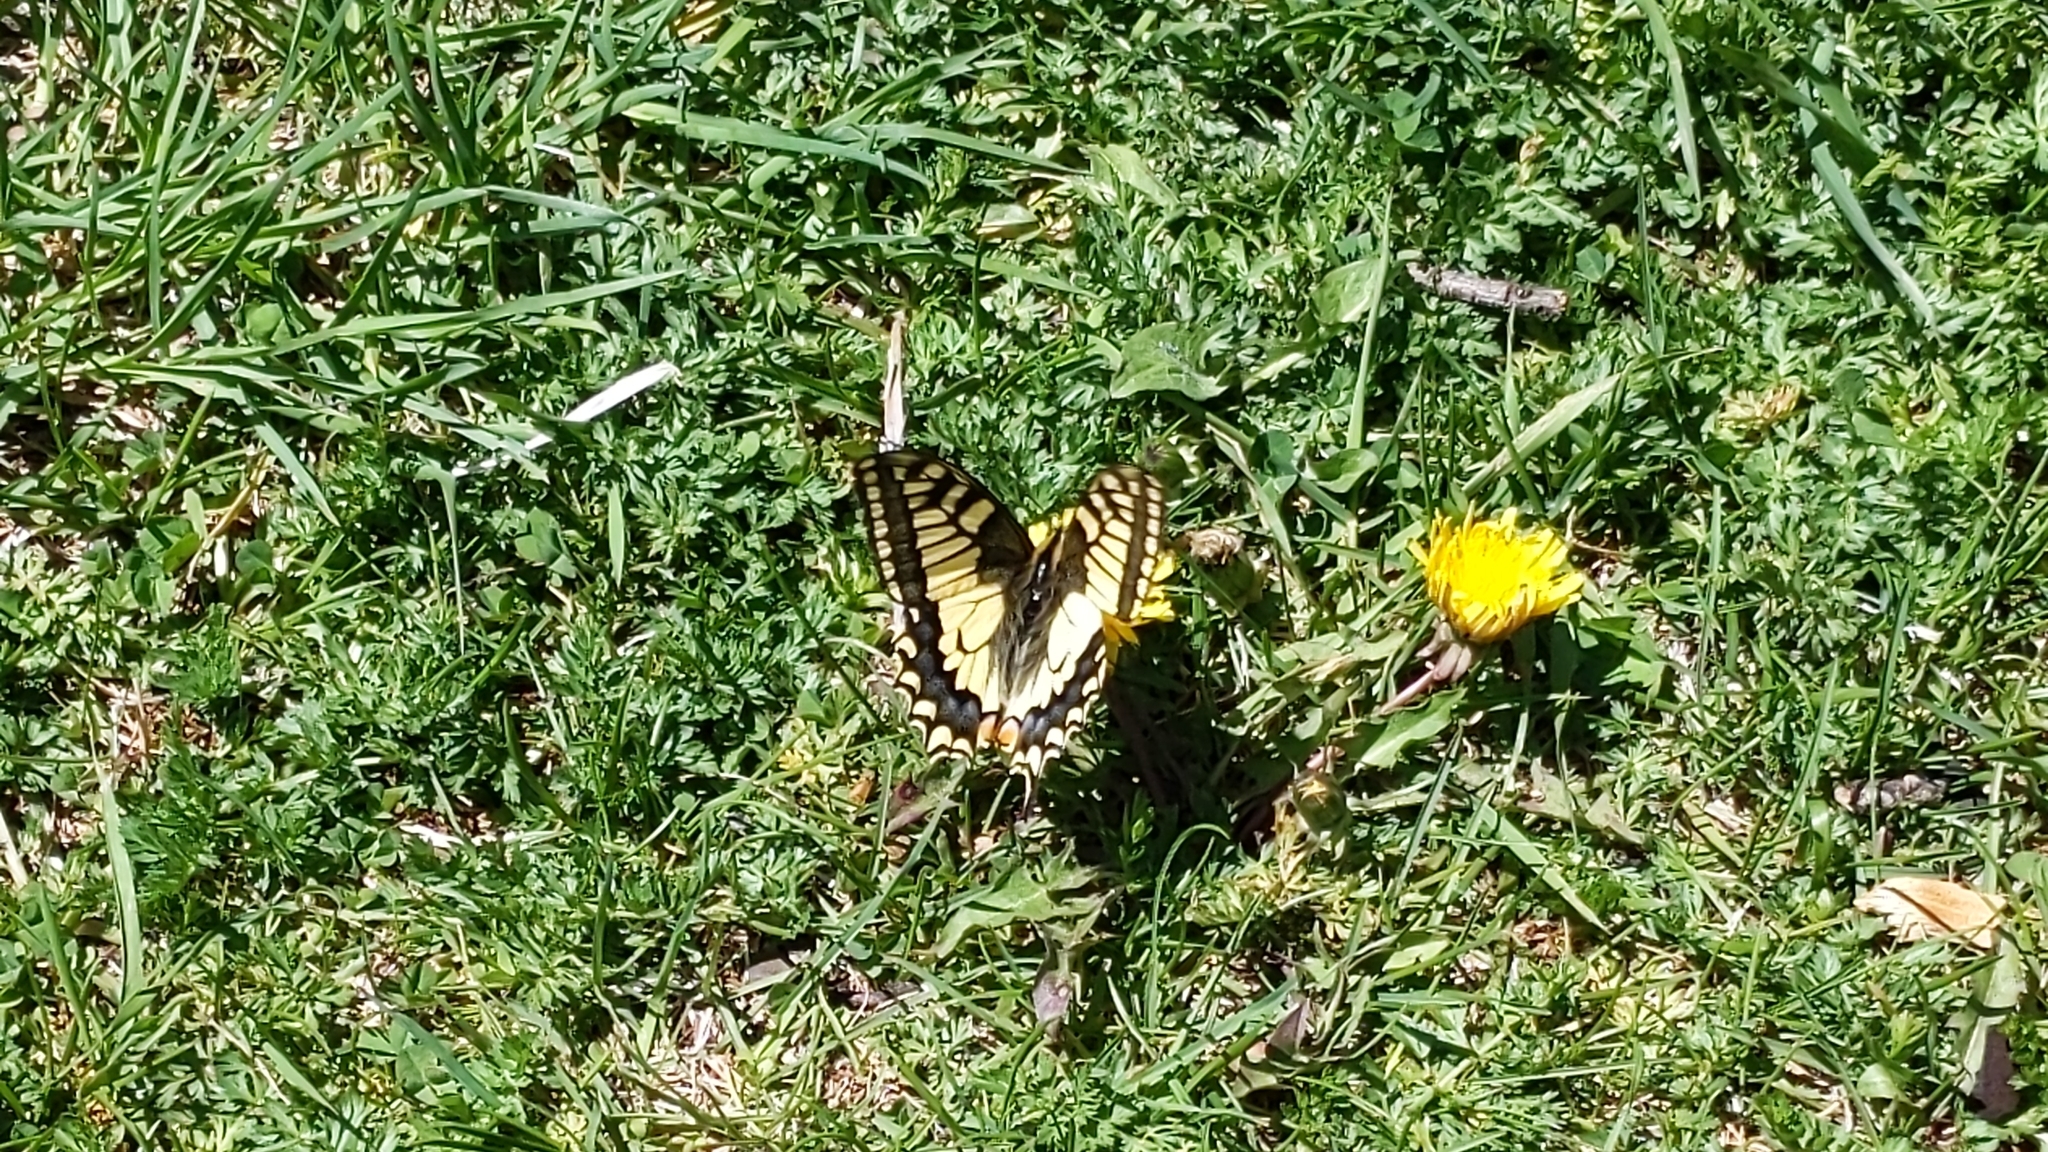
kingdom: Animalia
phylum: Arthropoda
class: Insecta
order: Lepidoptera
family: Papilionidae
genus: Papilio
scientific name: Papilio machaon
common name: Swallowtail
